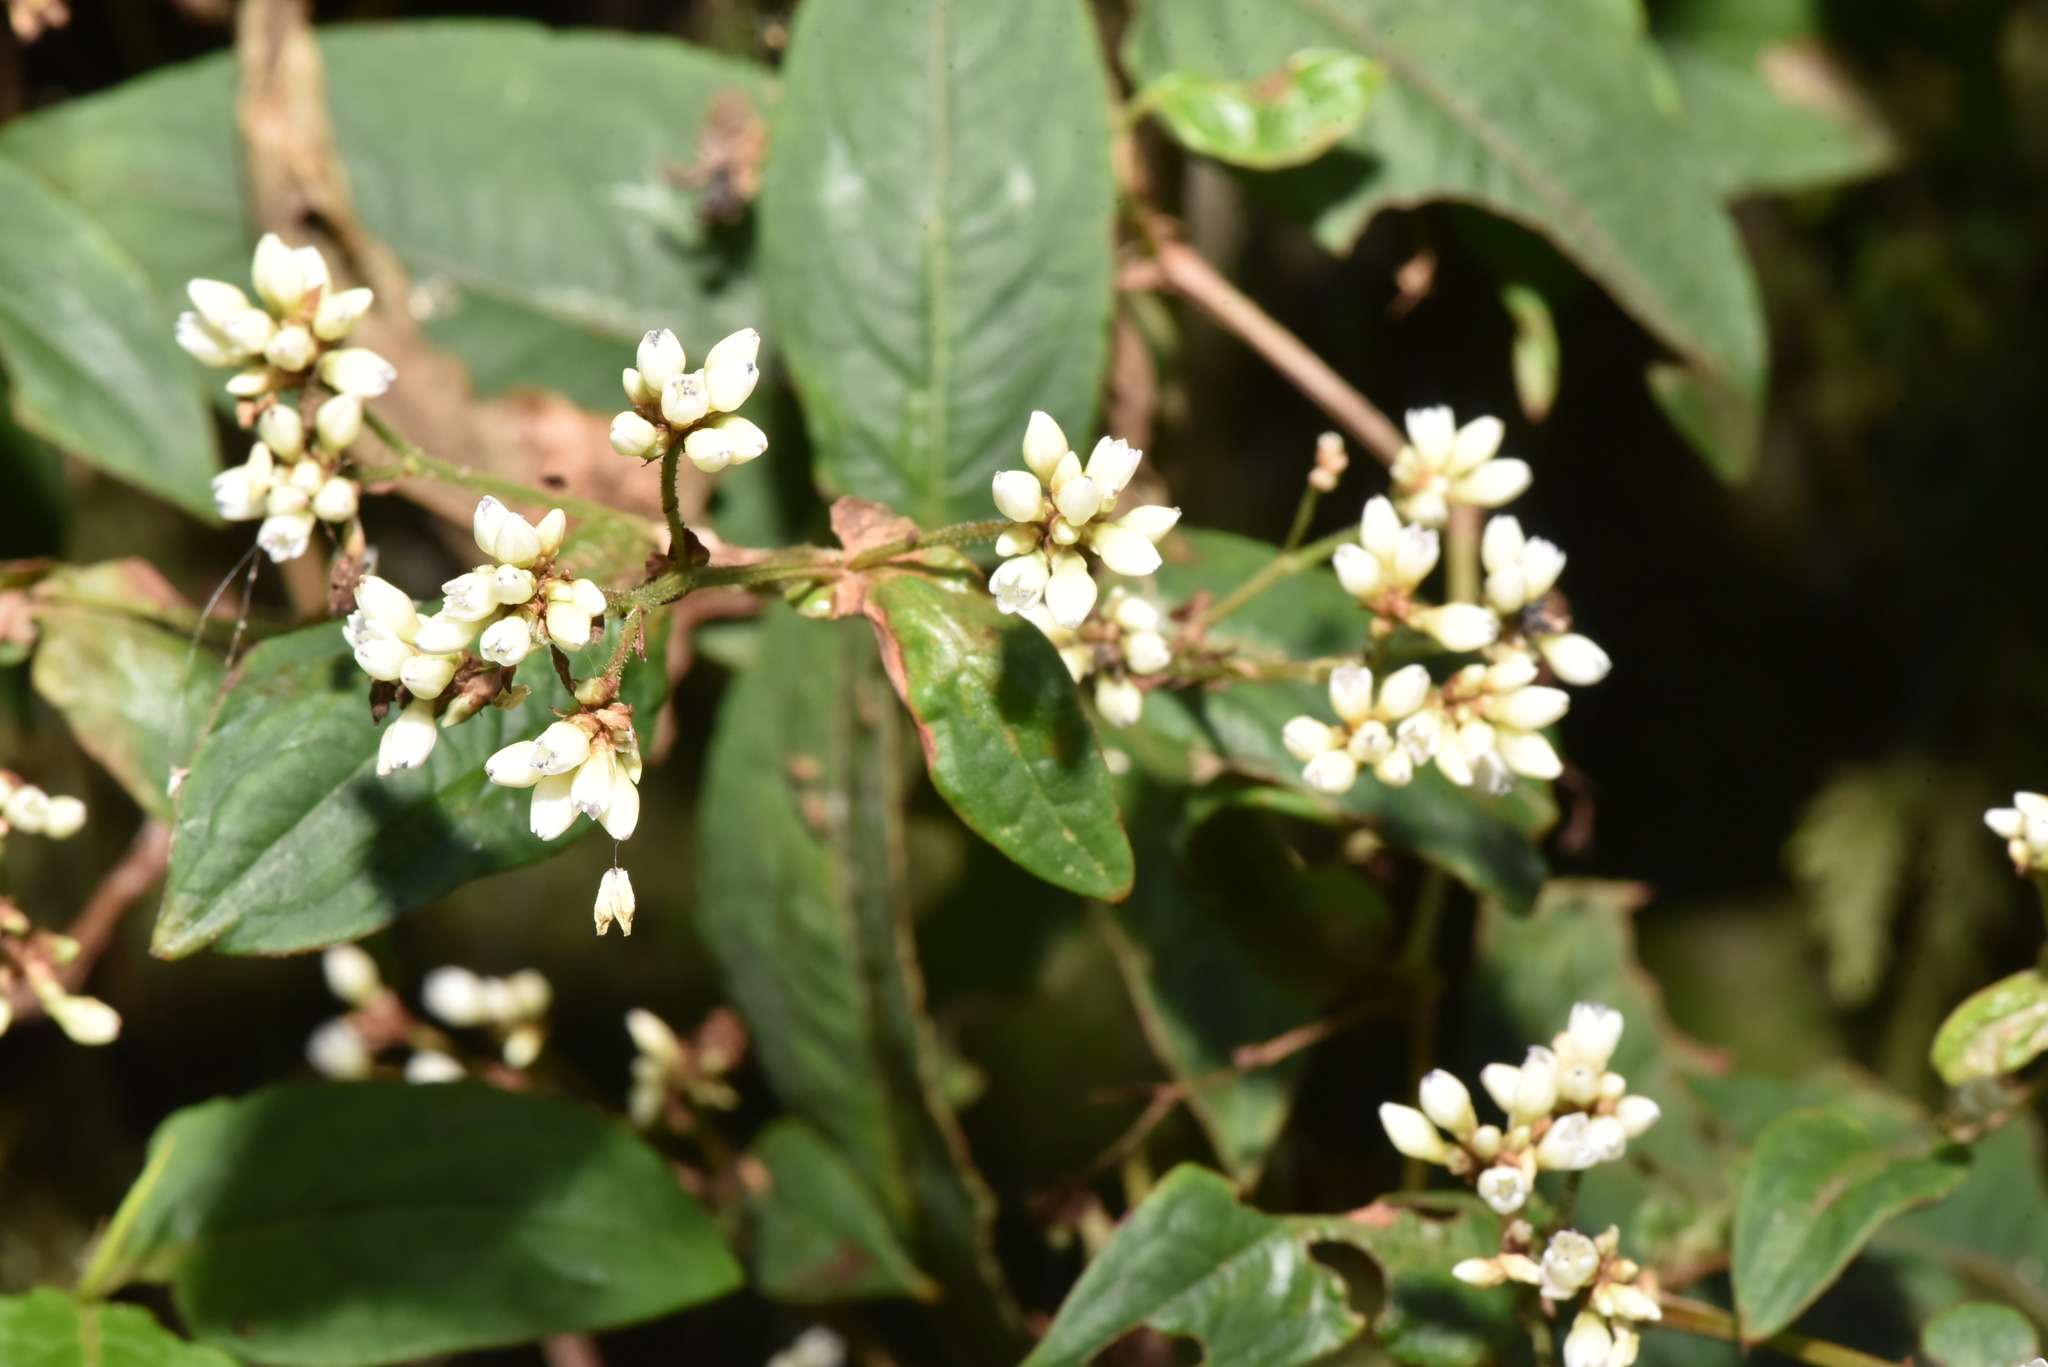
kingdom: Plantae
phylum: Tracheophyta
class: Magnoliopsida
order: Caryophyllales
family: Polygonaceae
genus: Persicaria
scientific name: Persicaria chinensis
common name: Chinese knotweed
